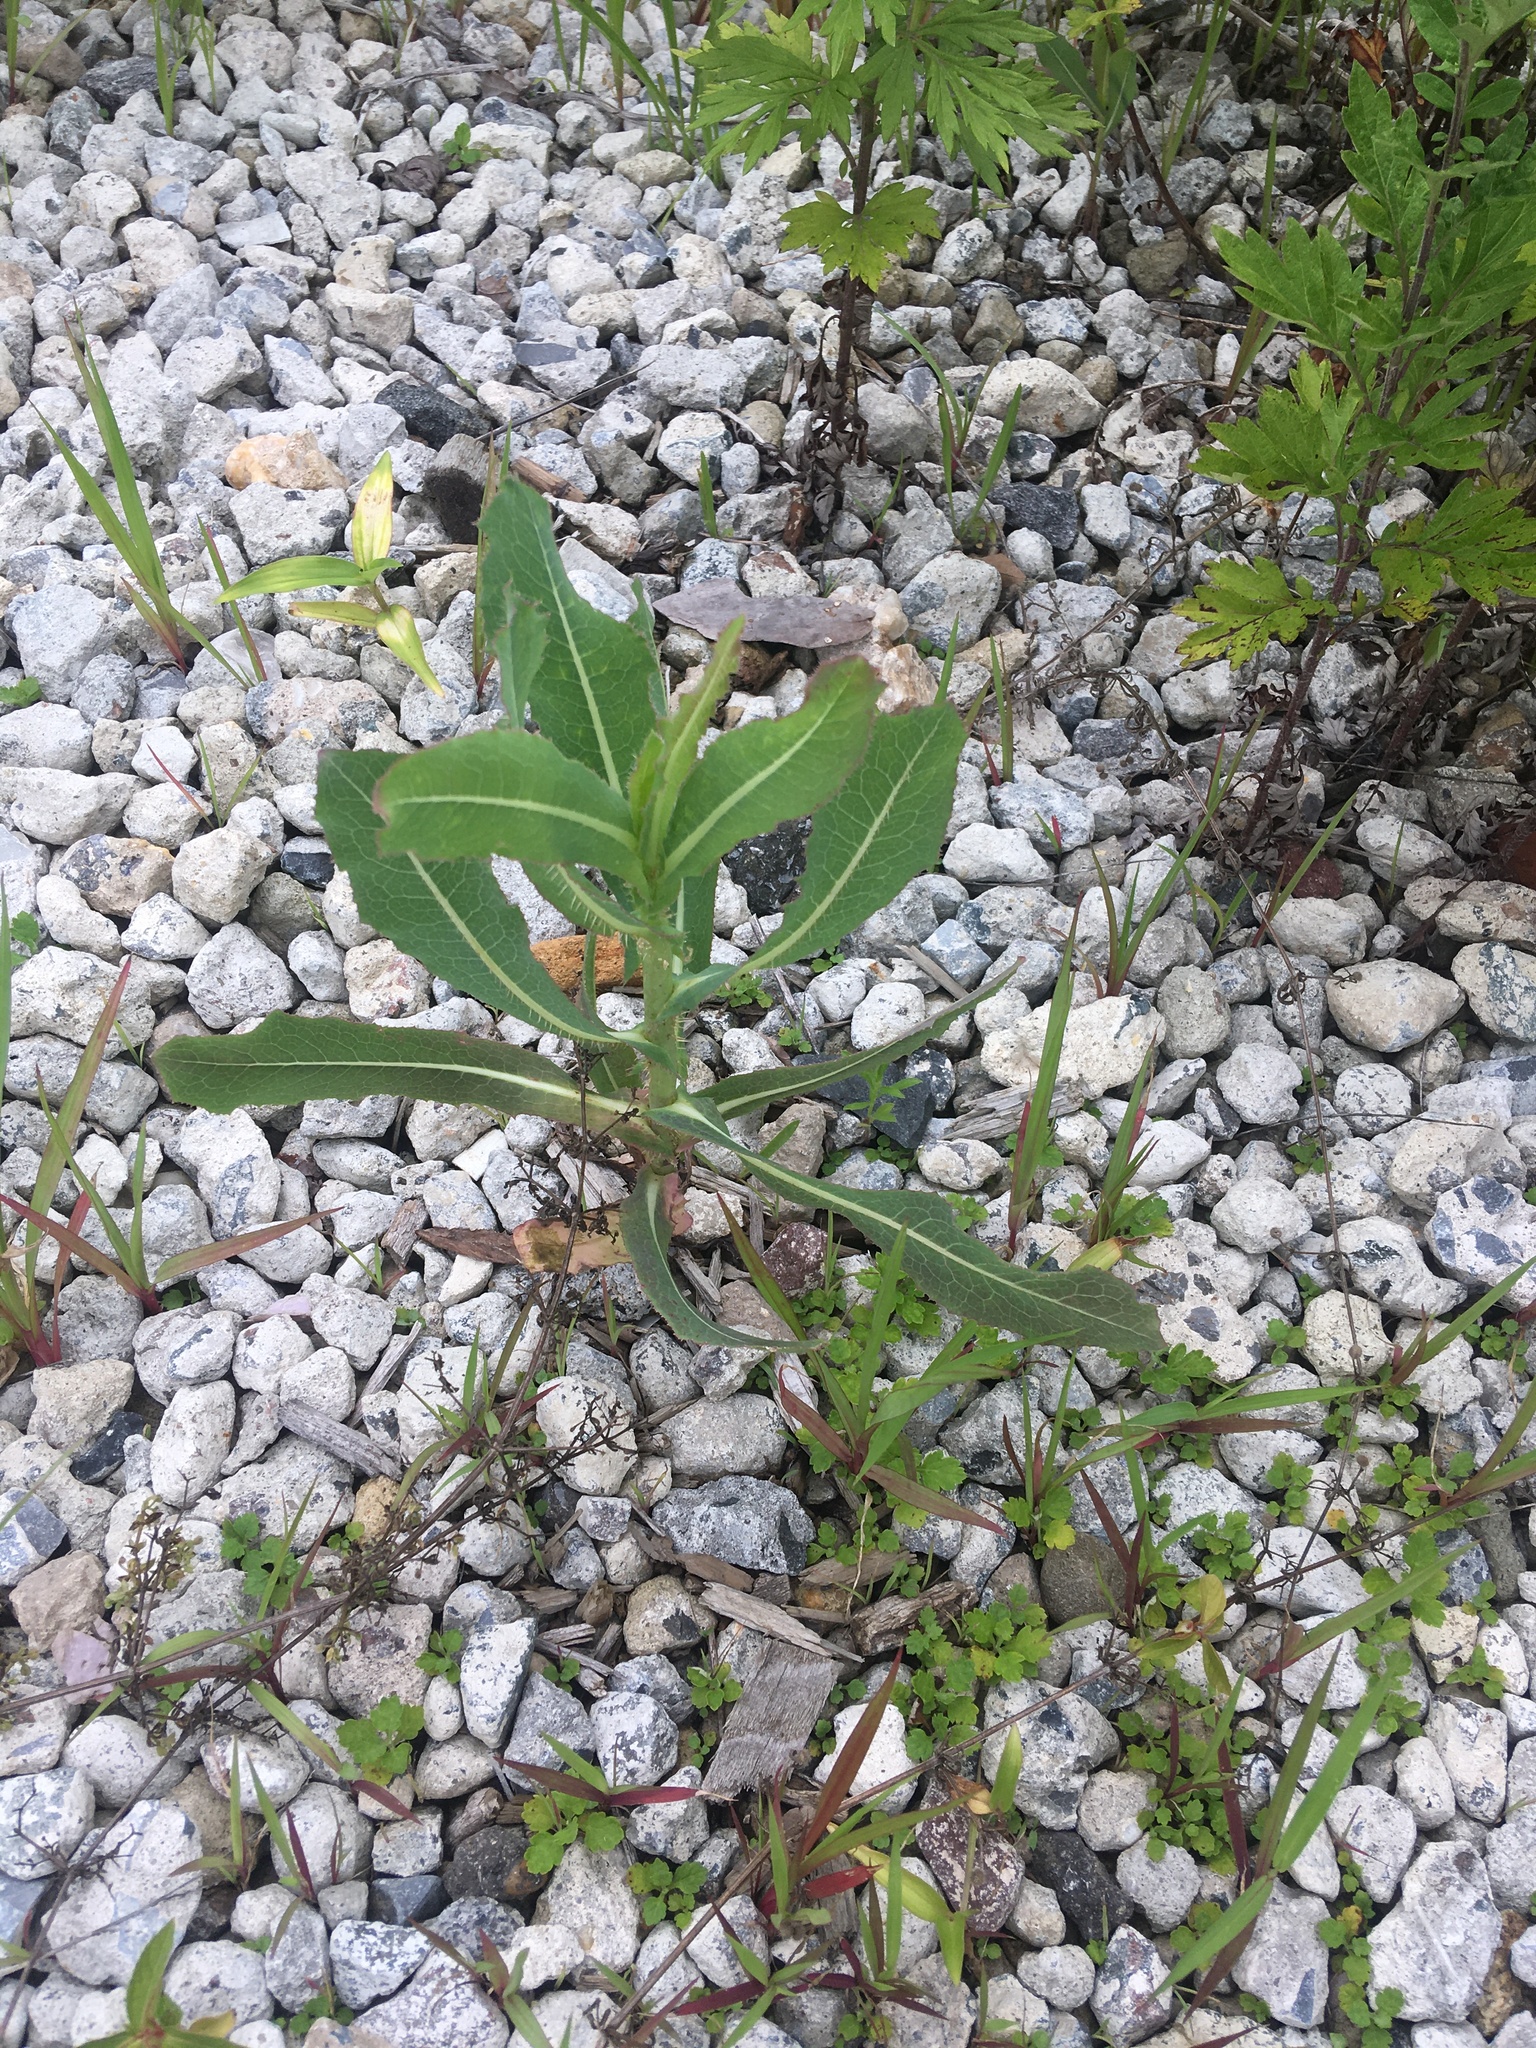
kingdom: Plantae
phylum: Tracheophyta
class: Magnoliopsida
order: Asterales
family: Asteraceae
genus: Lactuca
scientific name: Lactuca serriola
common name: Prickly lettuce
